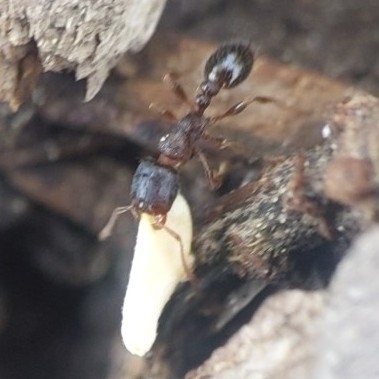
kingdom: Animalia
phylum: Arthropoda
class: Insecta
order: Hymenoptera
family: Formicidae
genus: Tetramorium
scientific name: Tetramorium immigrans
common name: Pavement ant
